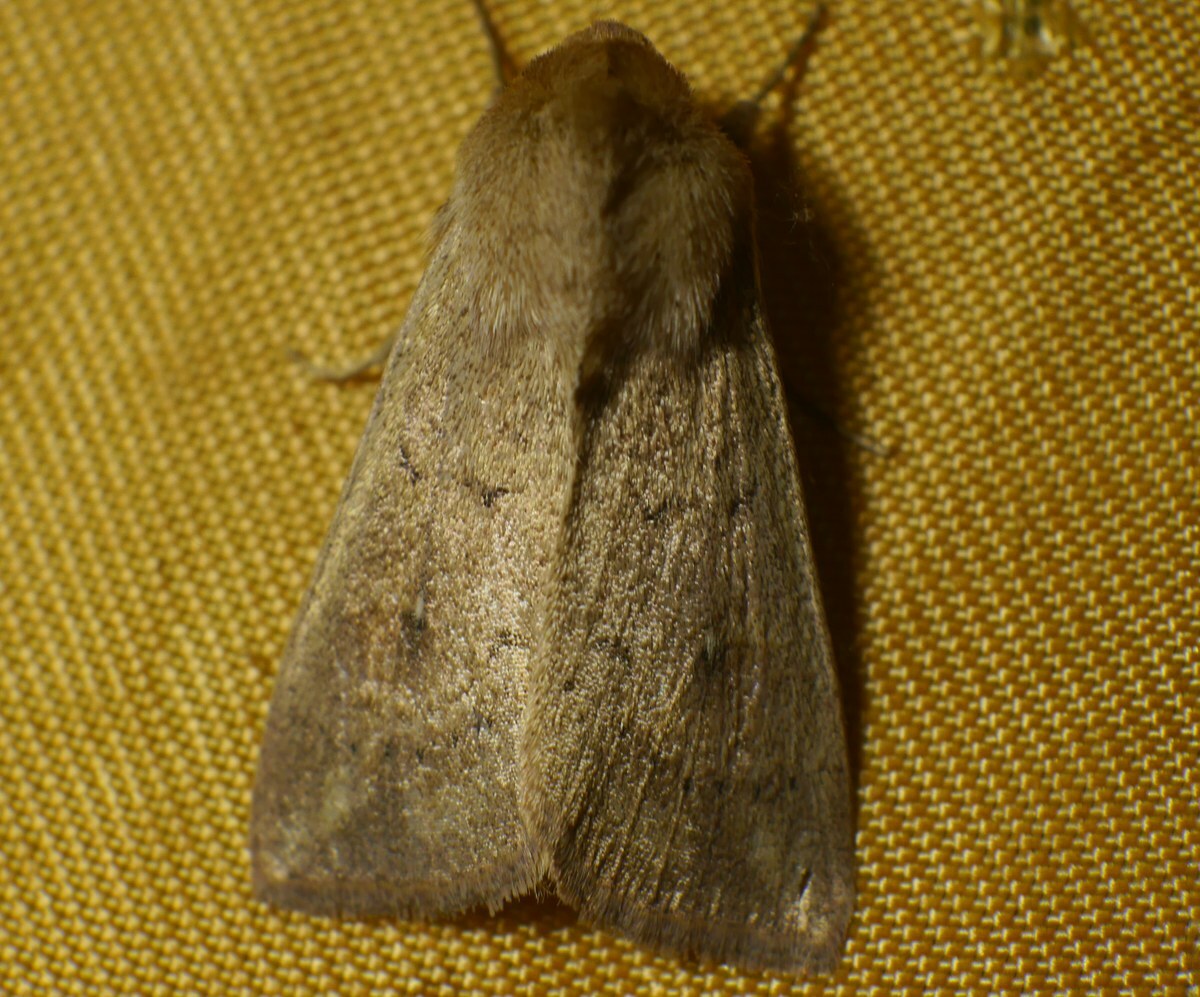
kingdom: Animalia
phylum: Arthropoda
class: Insecta
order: Lepidoptera
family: Noctuidae
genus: Mythimna
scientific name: Mythimna ferrago
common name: Clay
